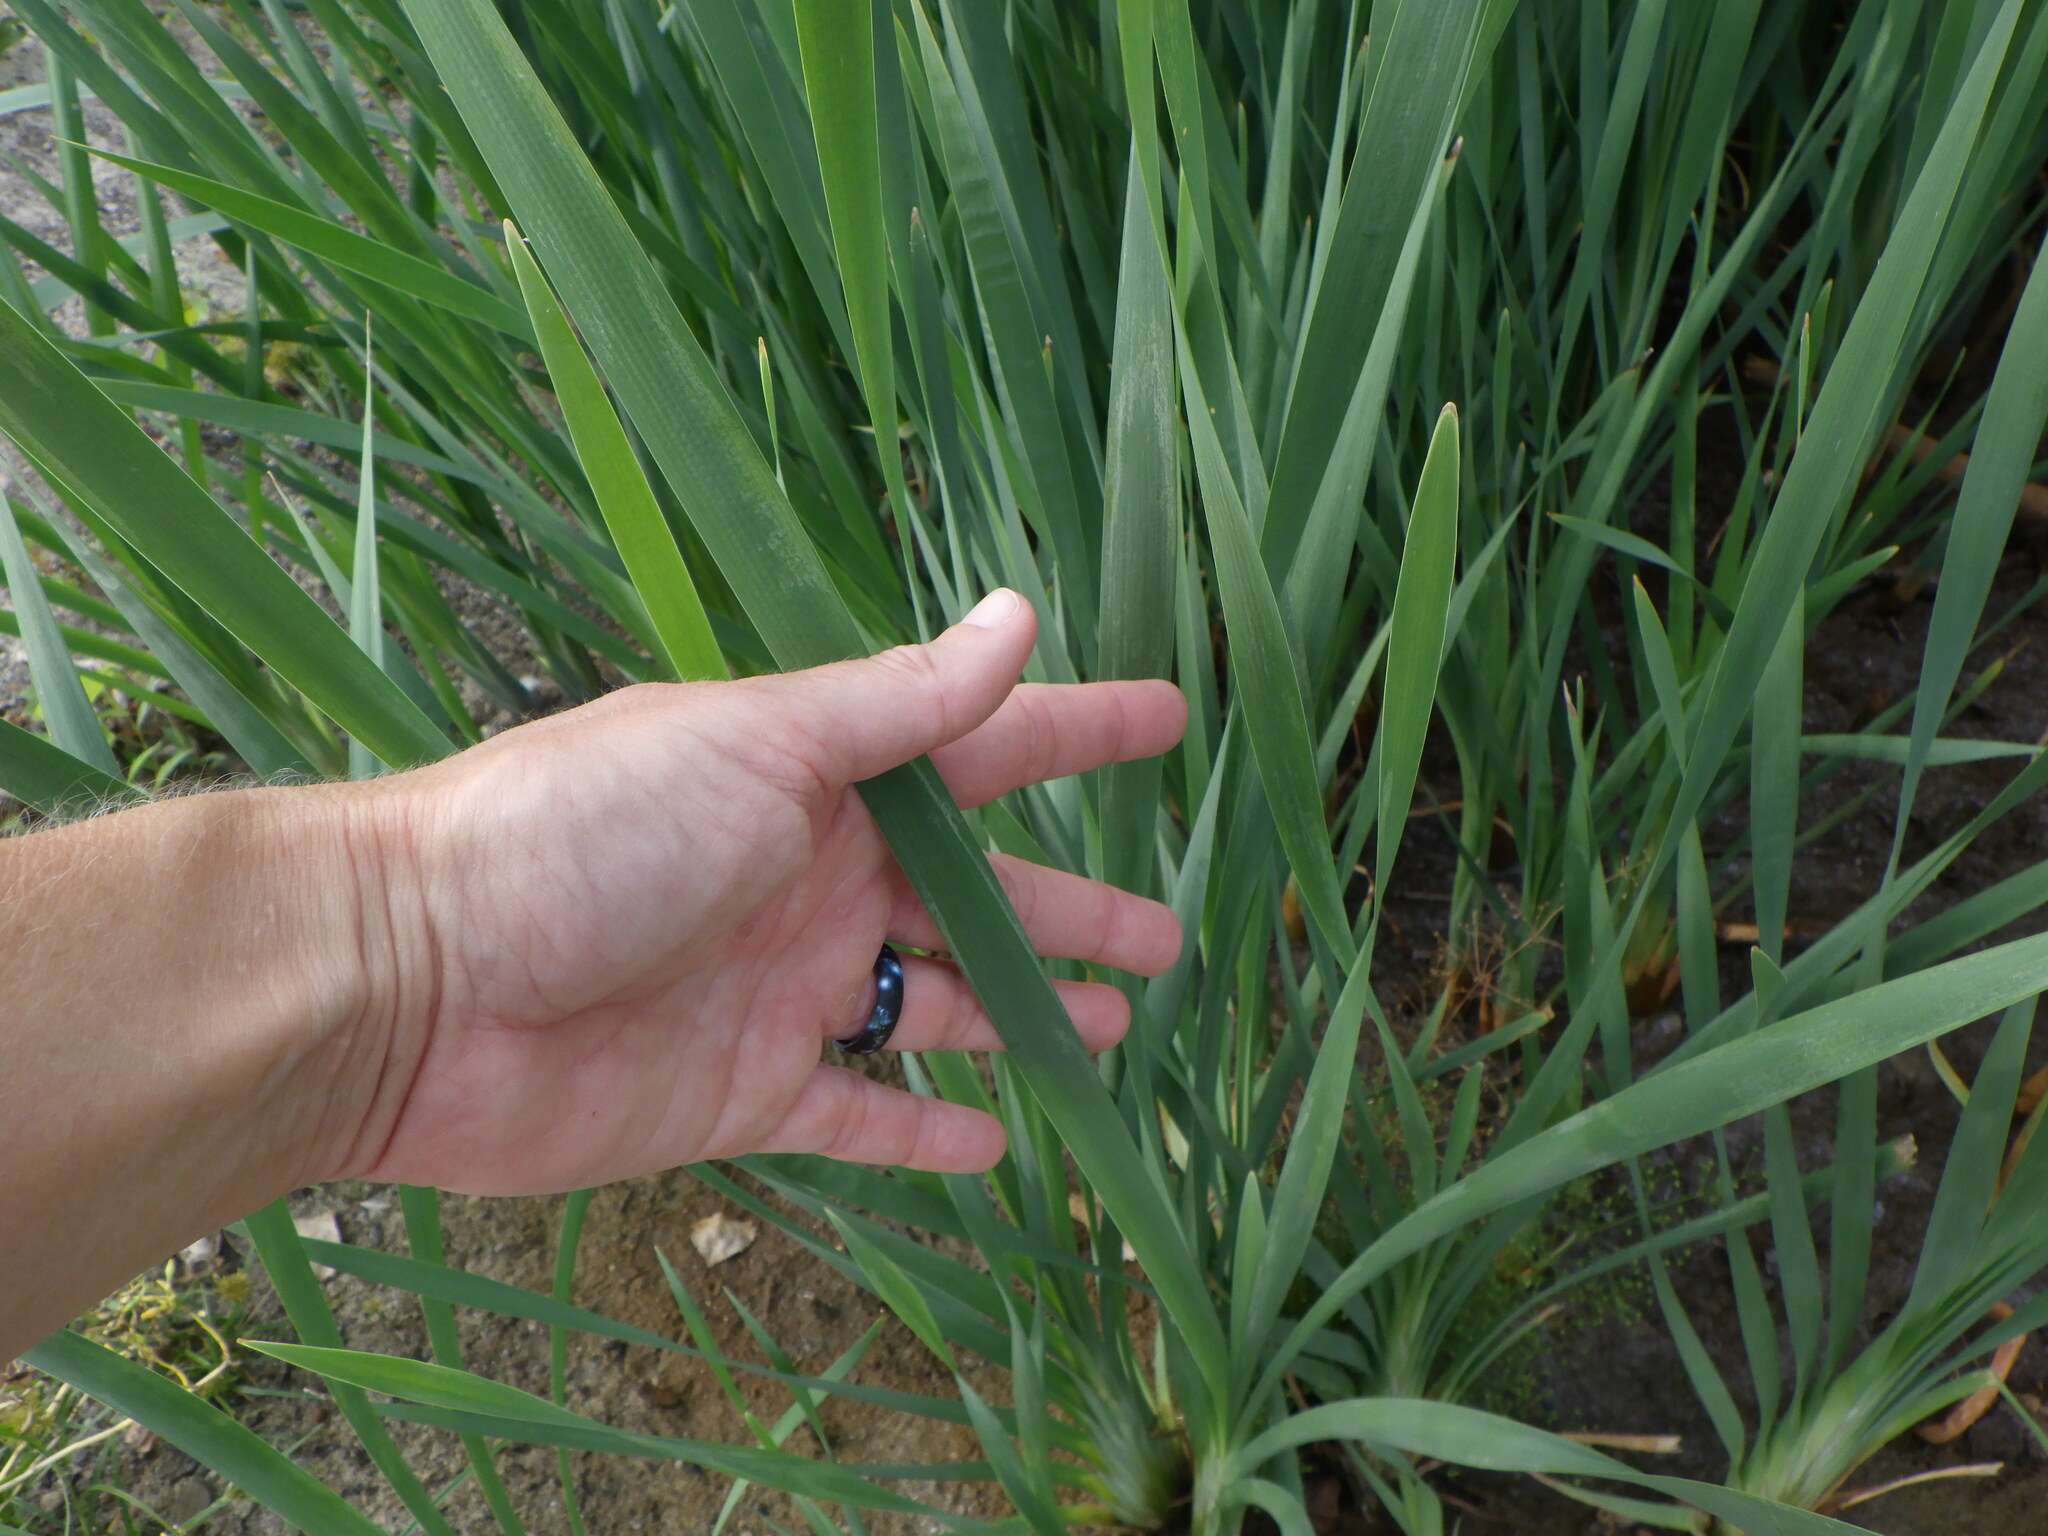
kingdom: Plantae
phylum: Tracheophyta
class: Liliopsida
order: Poales
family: Typhaceae
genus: Typha
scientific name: Typha angustifolia
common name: Lesser bulrush
